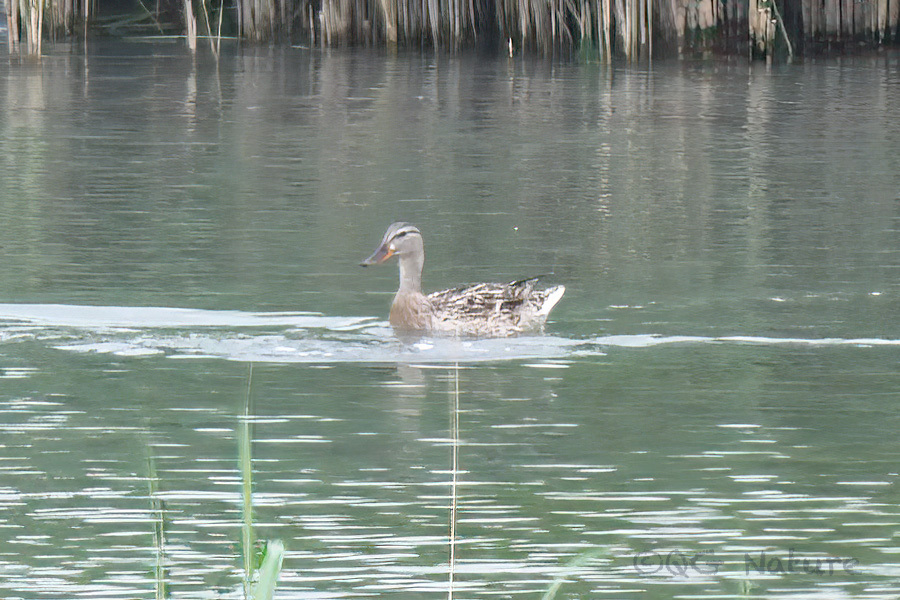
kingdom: Animalia
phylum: Chordata
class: Aves
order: Anseriformes
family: Anatidae
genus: Anas
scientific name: Anas platyrhynchos
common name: Mallard
